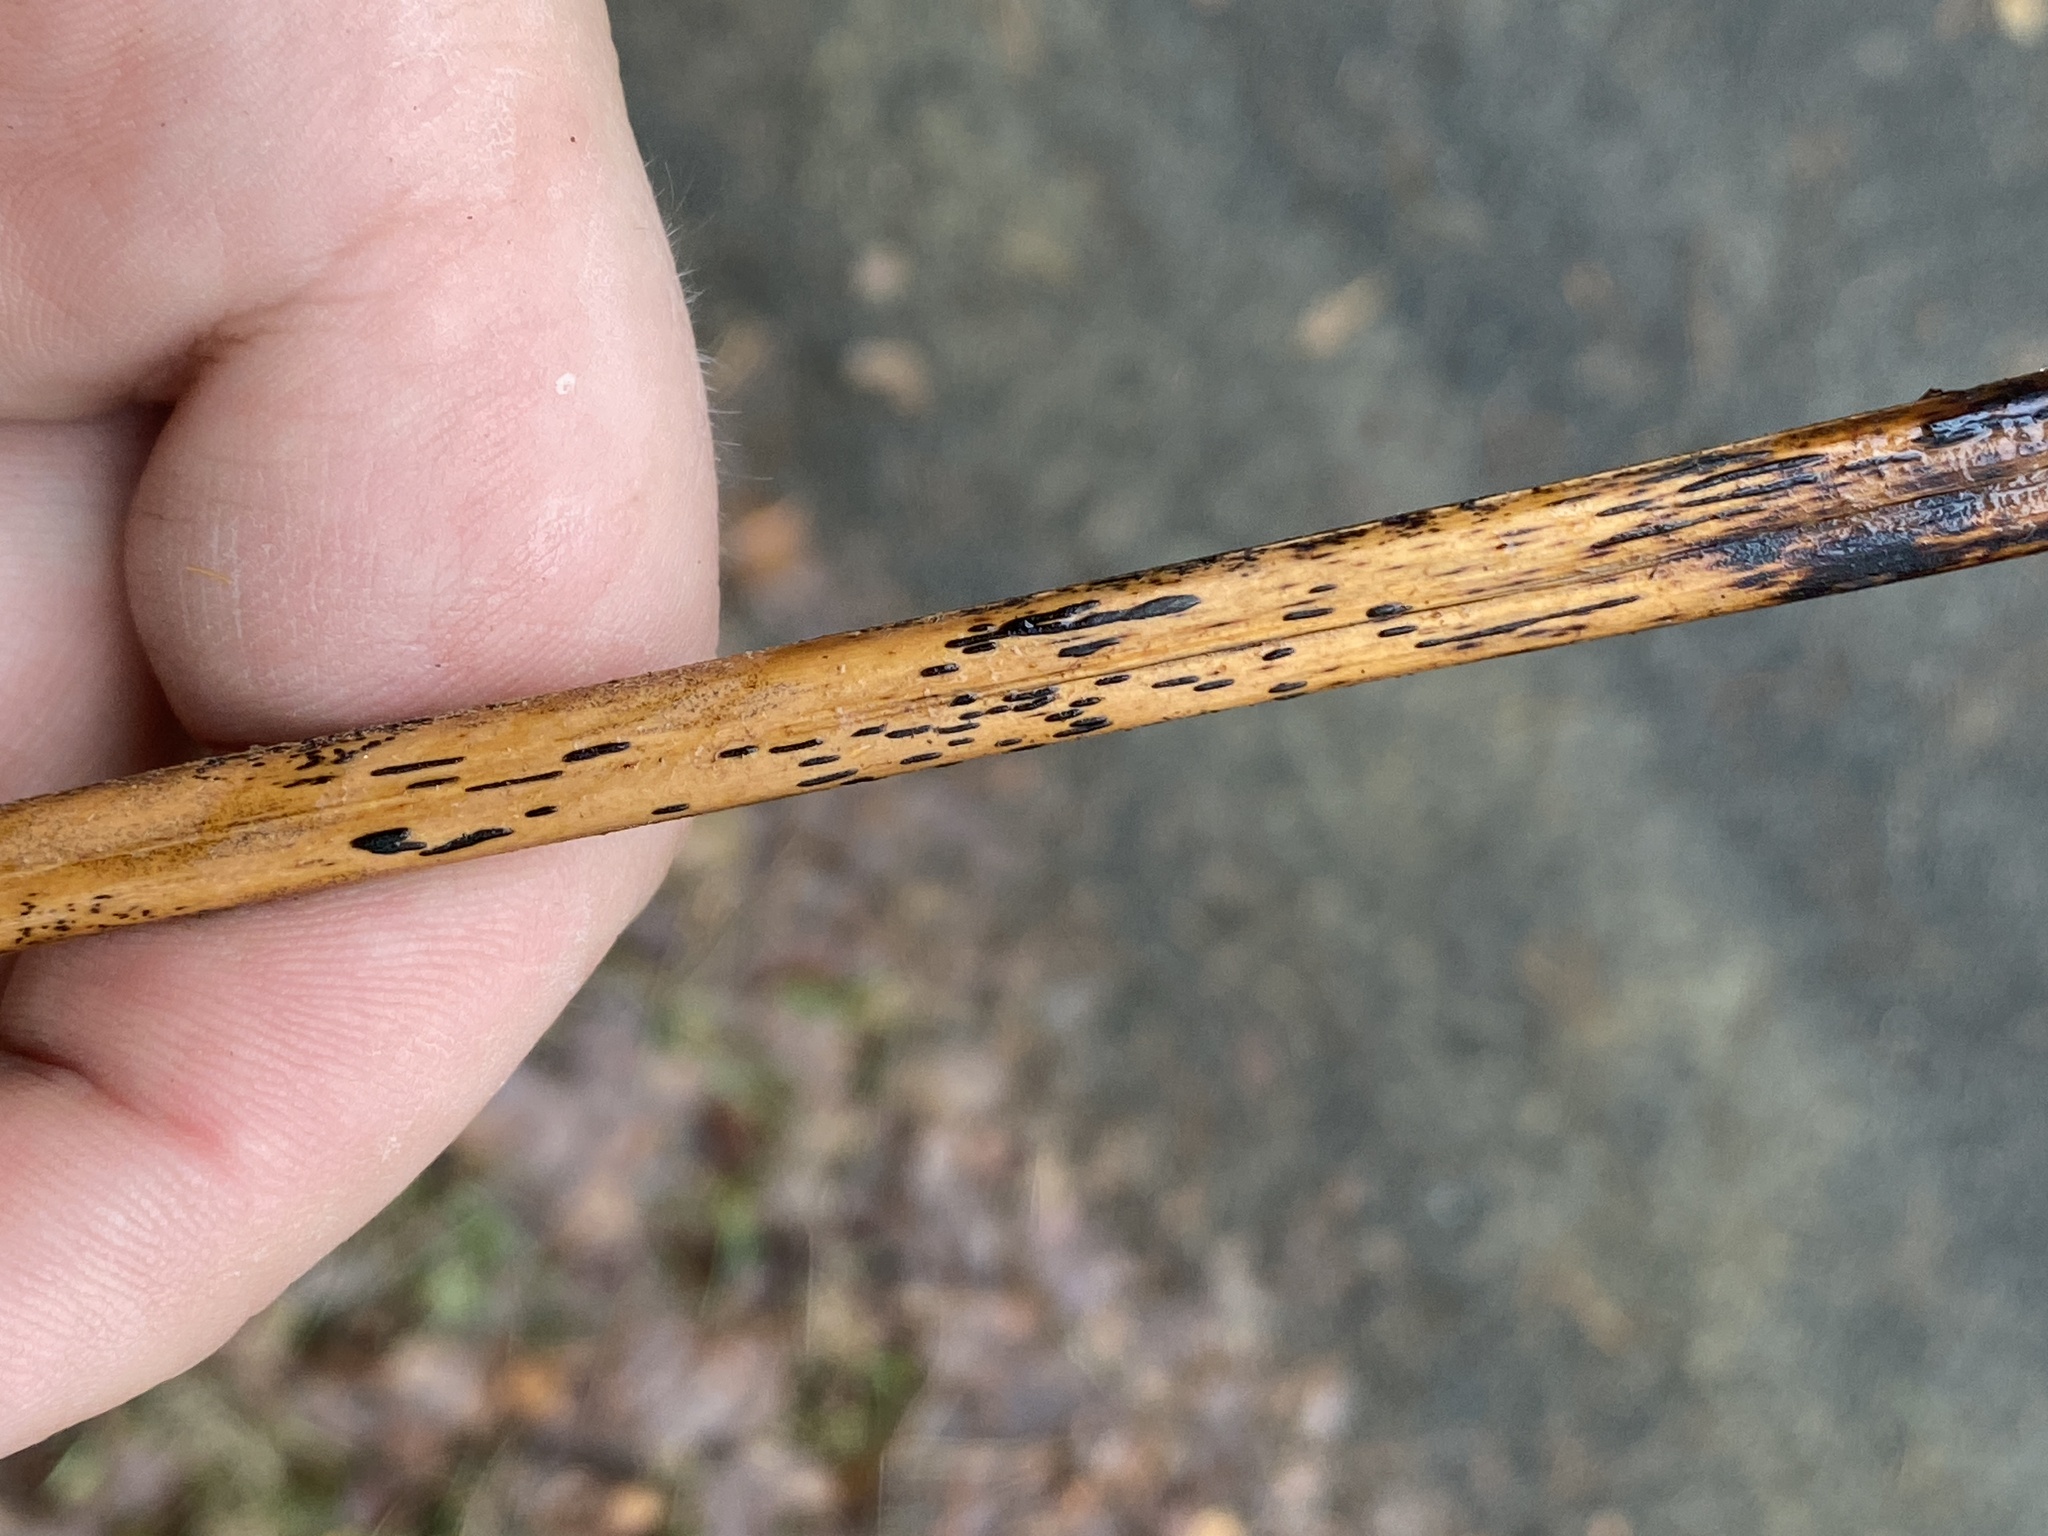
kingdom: Fungi
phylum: Ascomycota
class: Dothideomycetes
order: Pleosporales
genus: Rhopographus
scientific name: Rhopographus filicinus
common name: Bracken map
